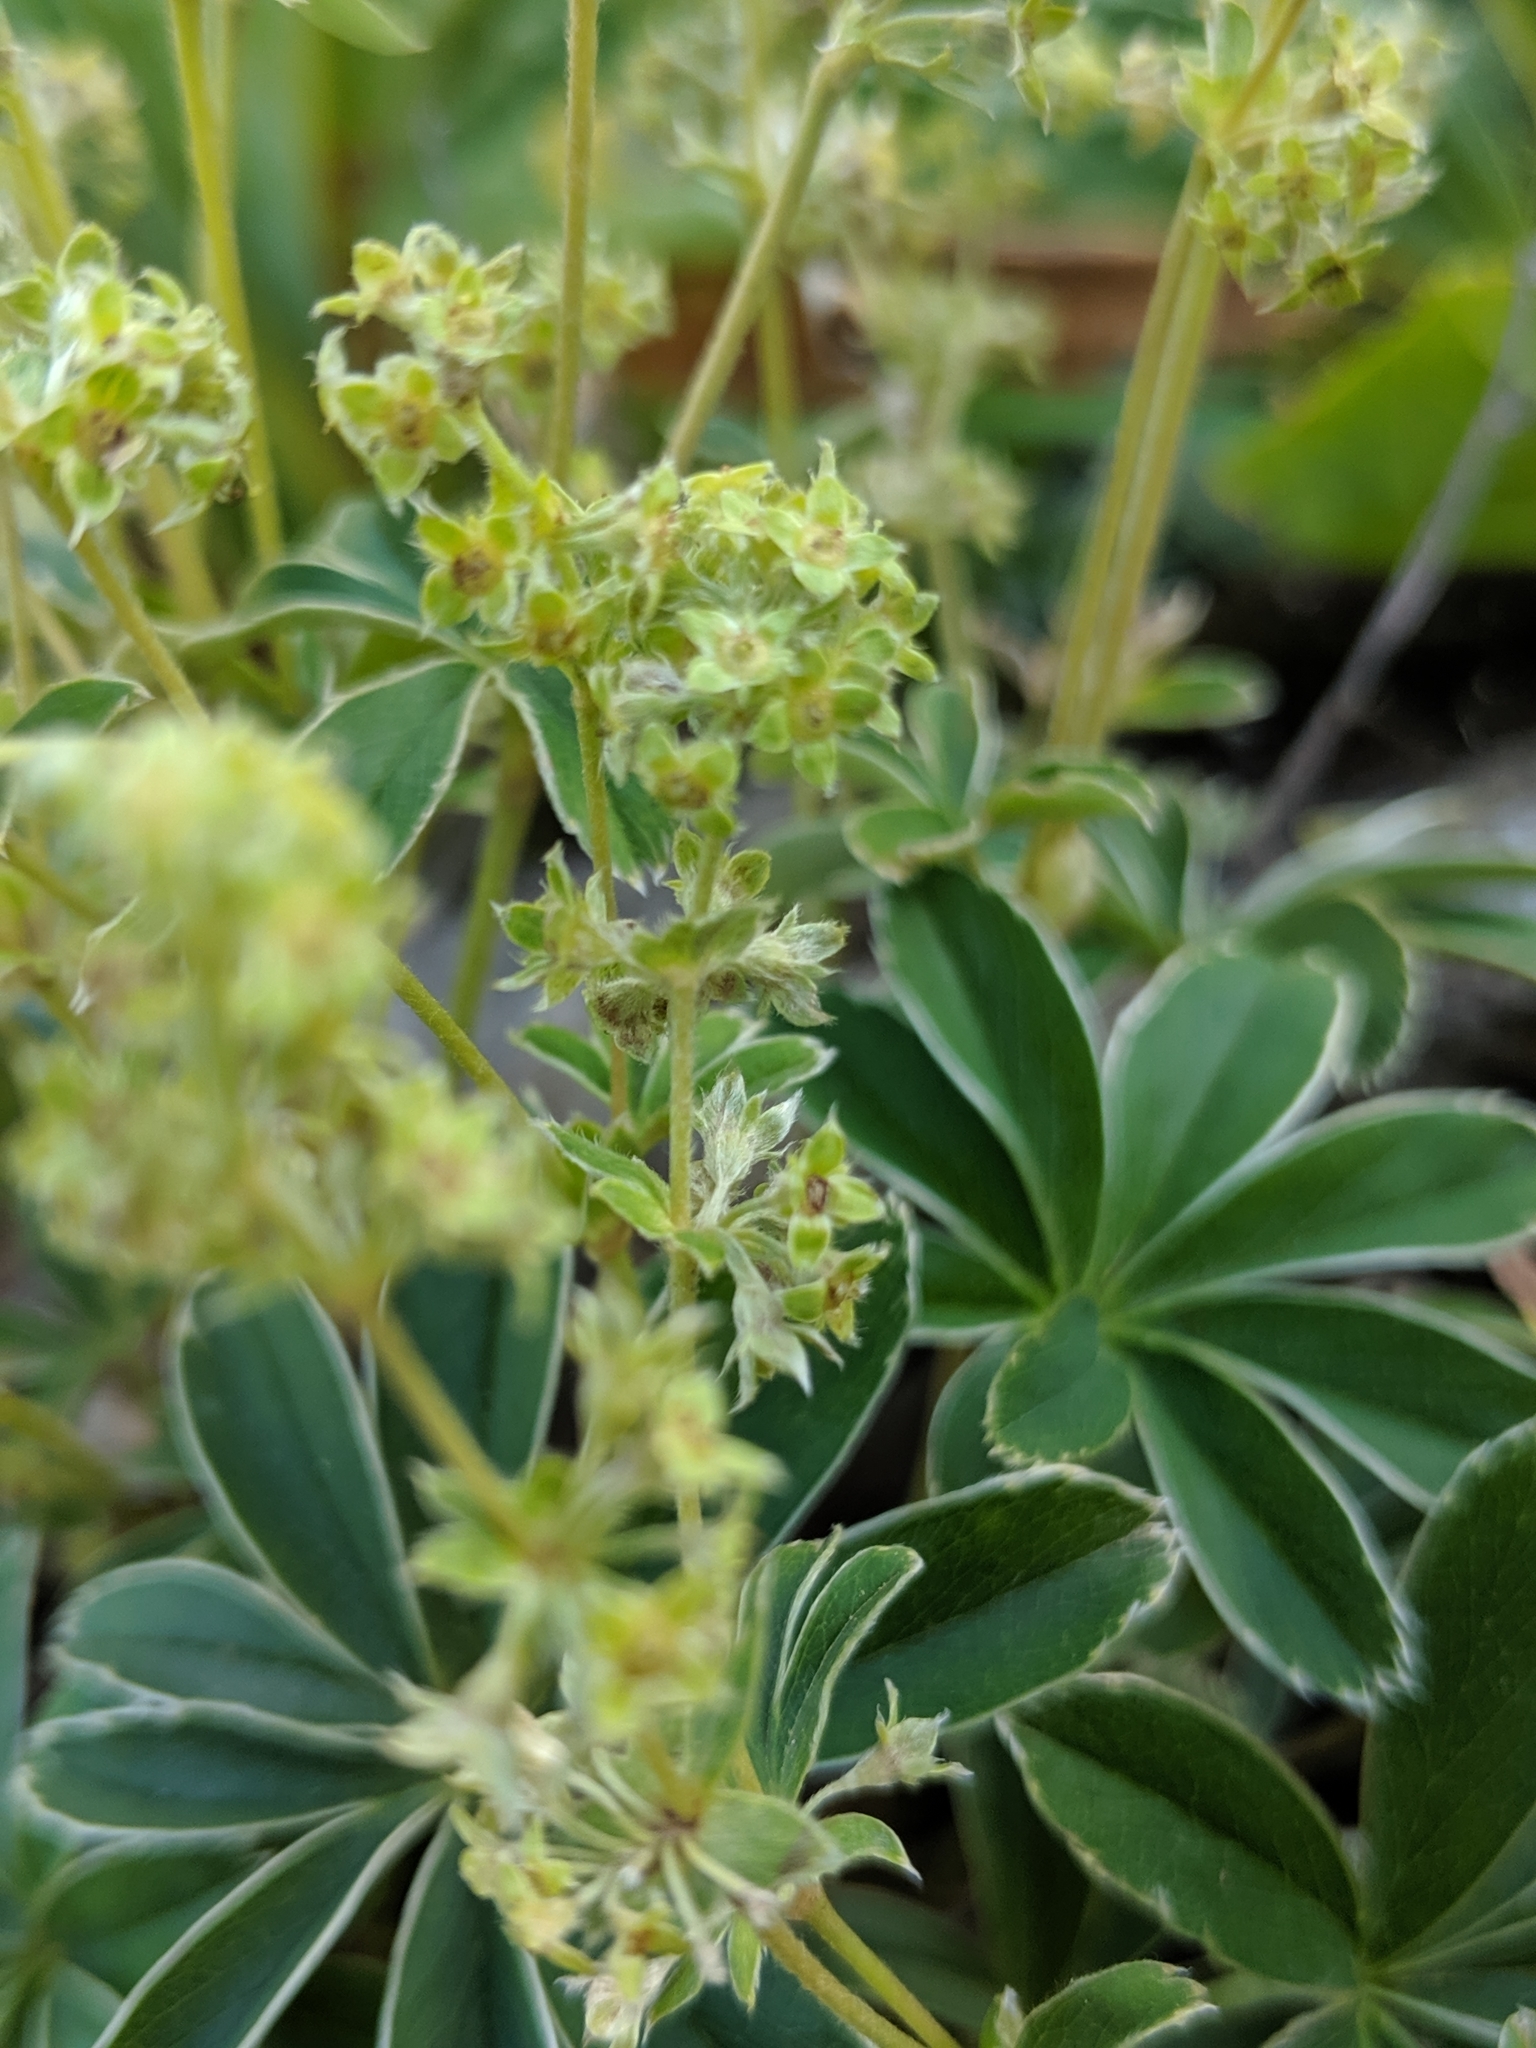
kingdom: Plantae
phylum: Tracheophyta
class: Magnoliopsida
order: Rosales
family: Rosaceae
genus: Alchemilla
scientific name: Alchemilla alpina
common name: Alpine lady's-mantle
